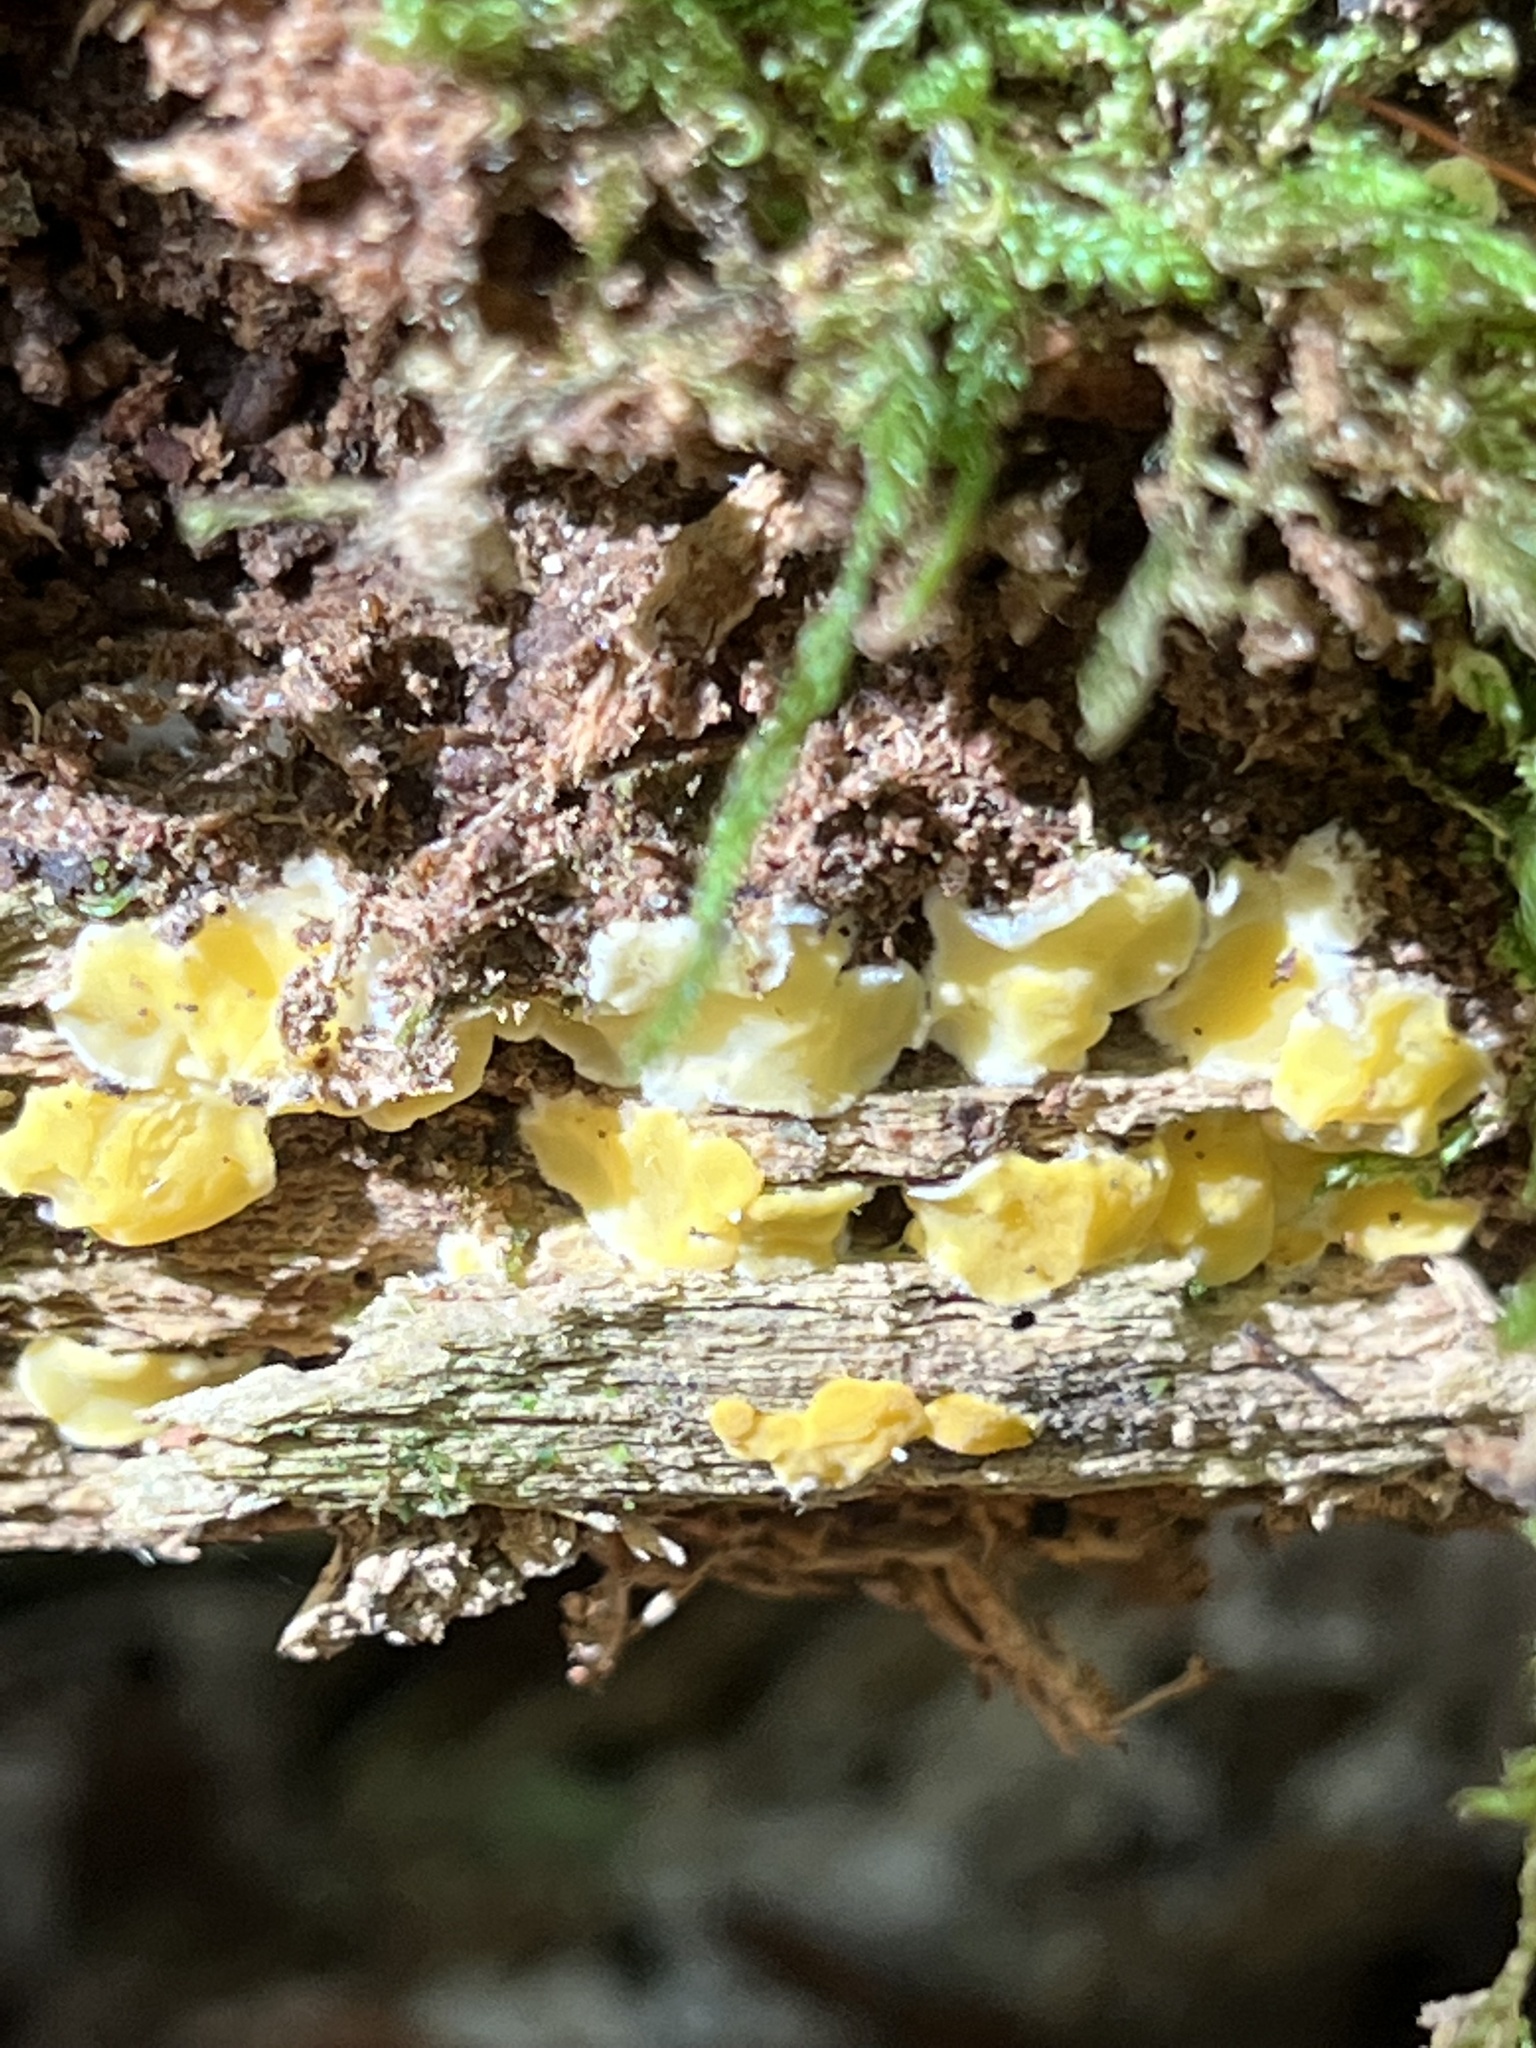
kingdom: Fungi
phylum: Ascomycota
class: Sordariomycetes
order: Hypocreales
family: Hypocreaceae
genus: Trichoderma
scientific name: Trichoderma sulphureum
